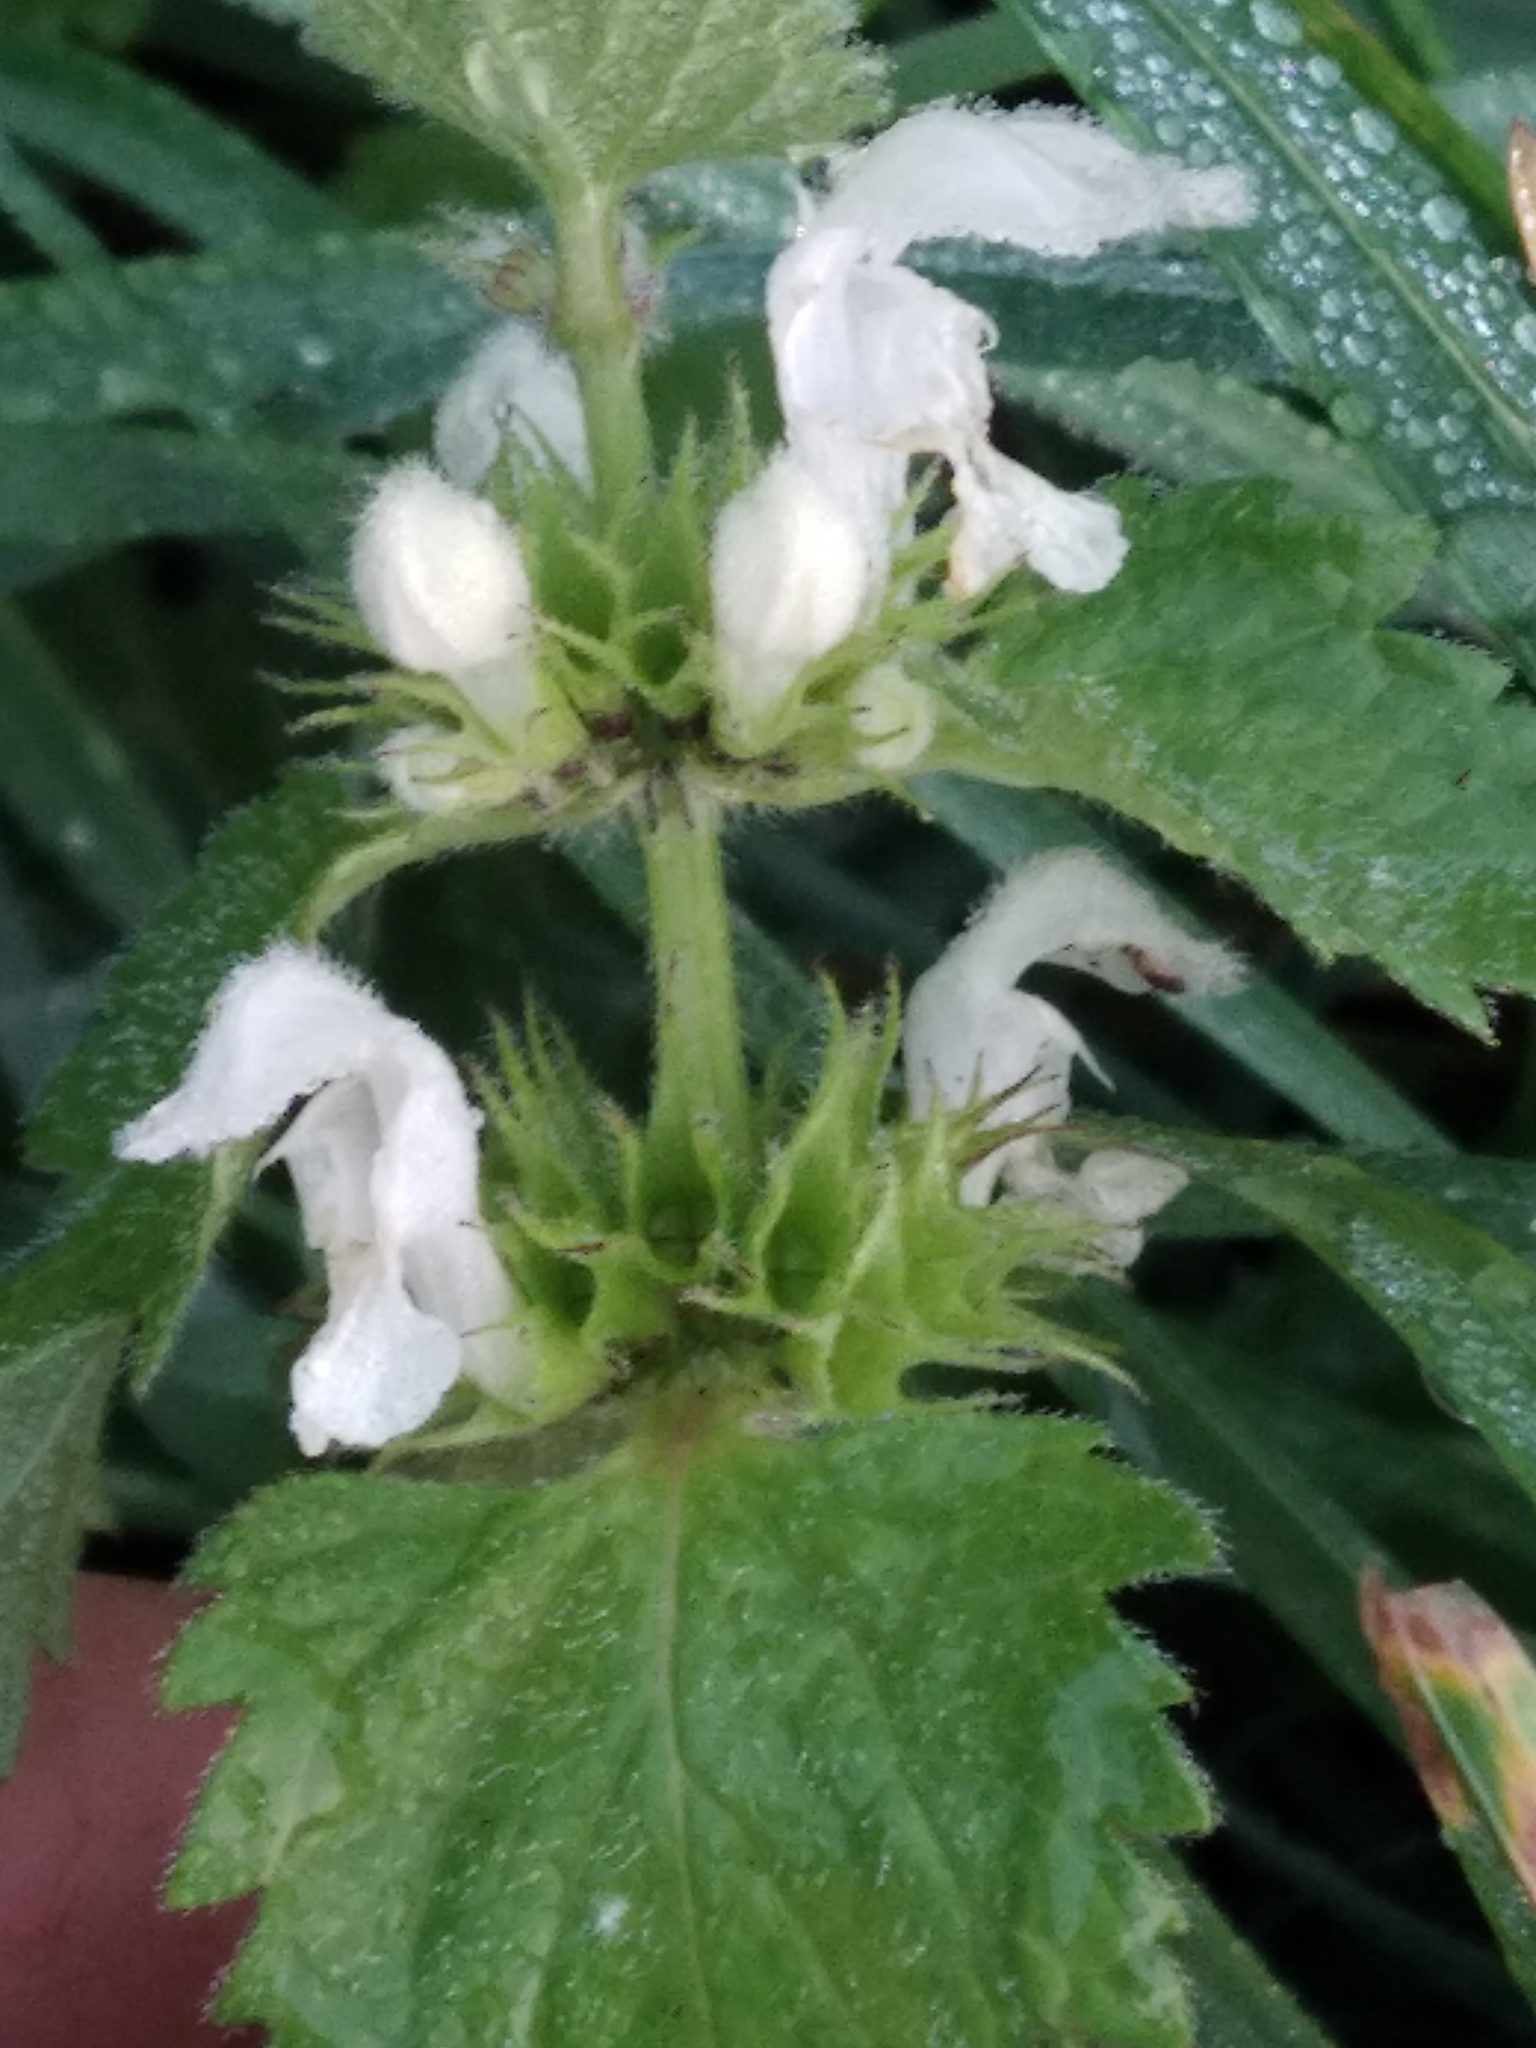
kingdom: Plantae
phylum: Tracheophyta
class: Magnoliopsida
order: Lamiales
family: Lamiaceae
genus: Lamium
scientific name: Lamium album
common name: White dead-nettle
